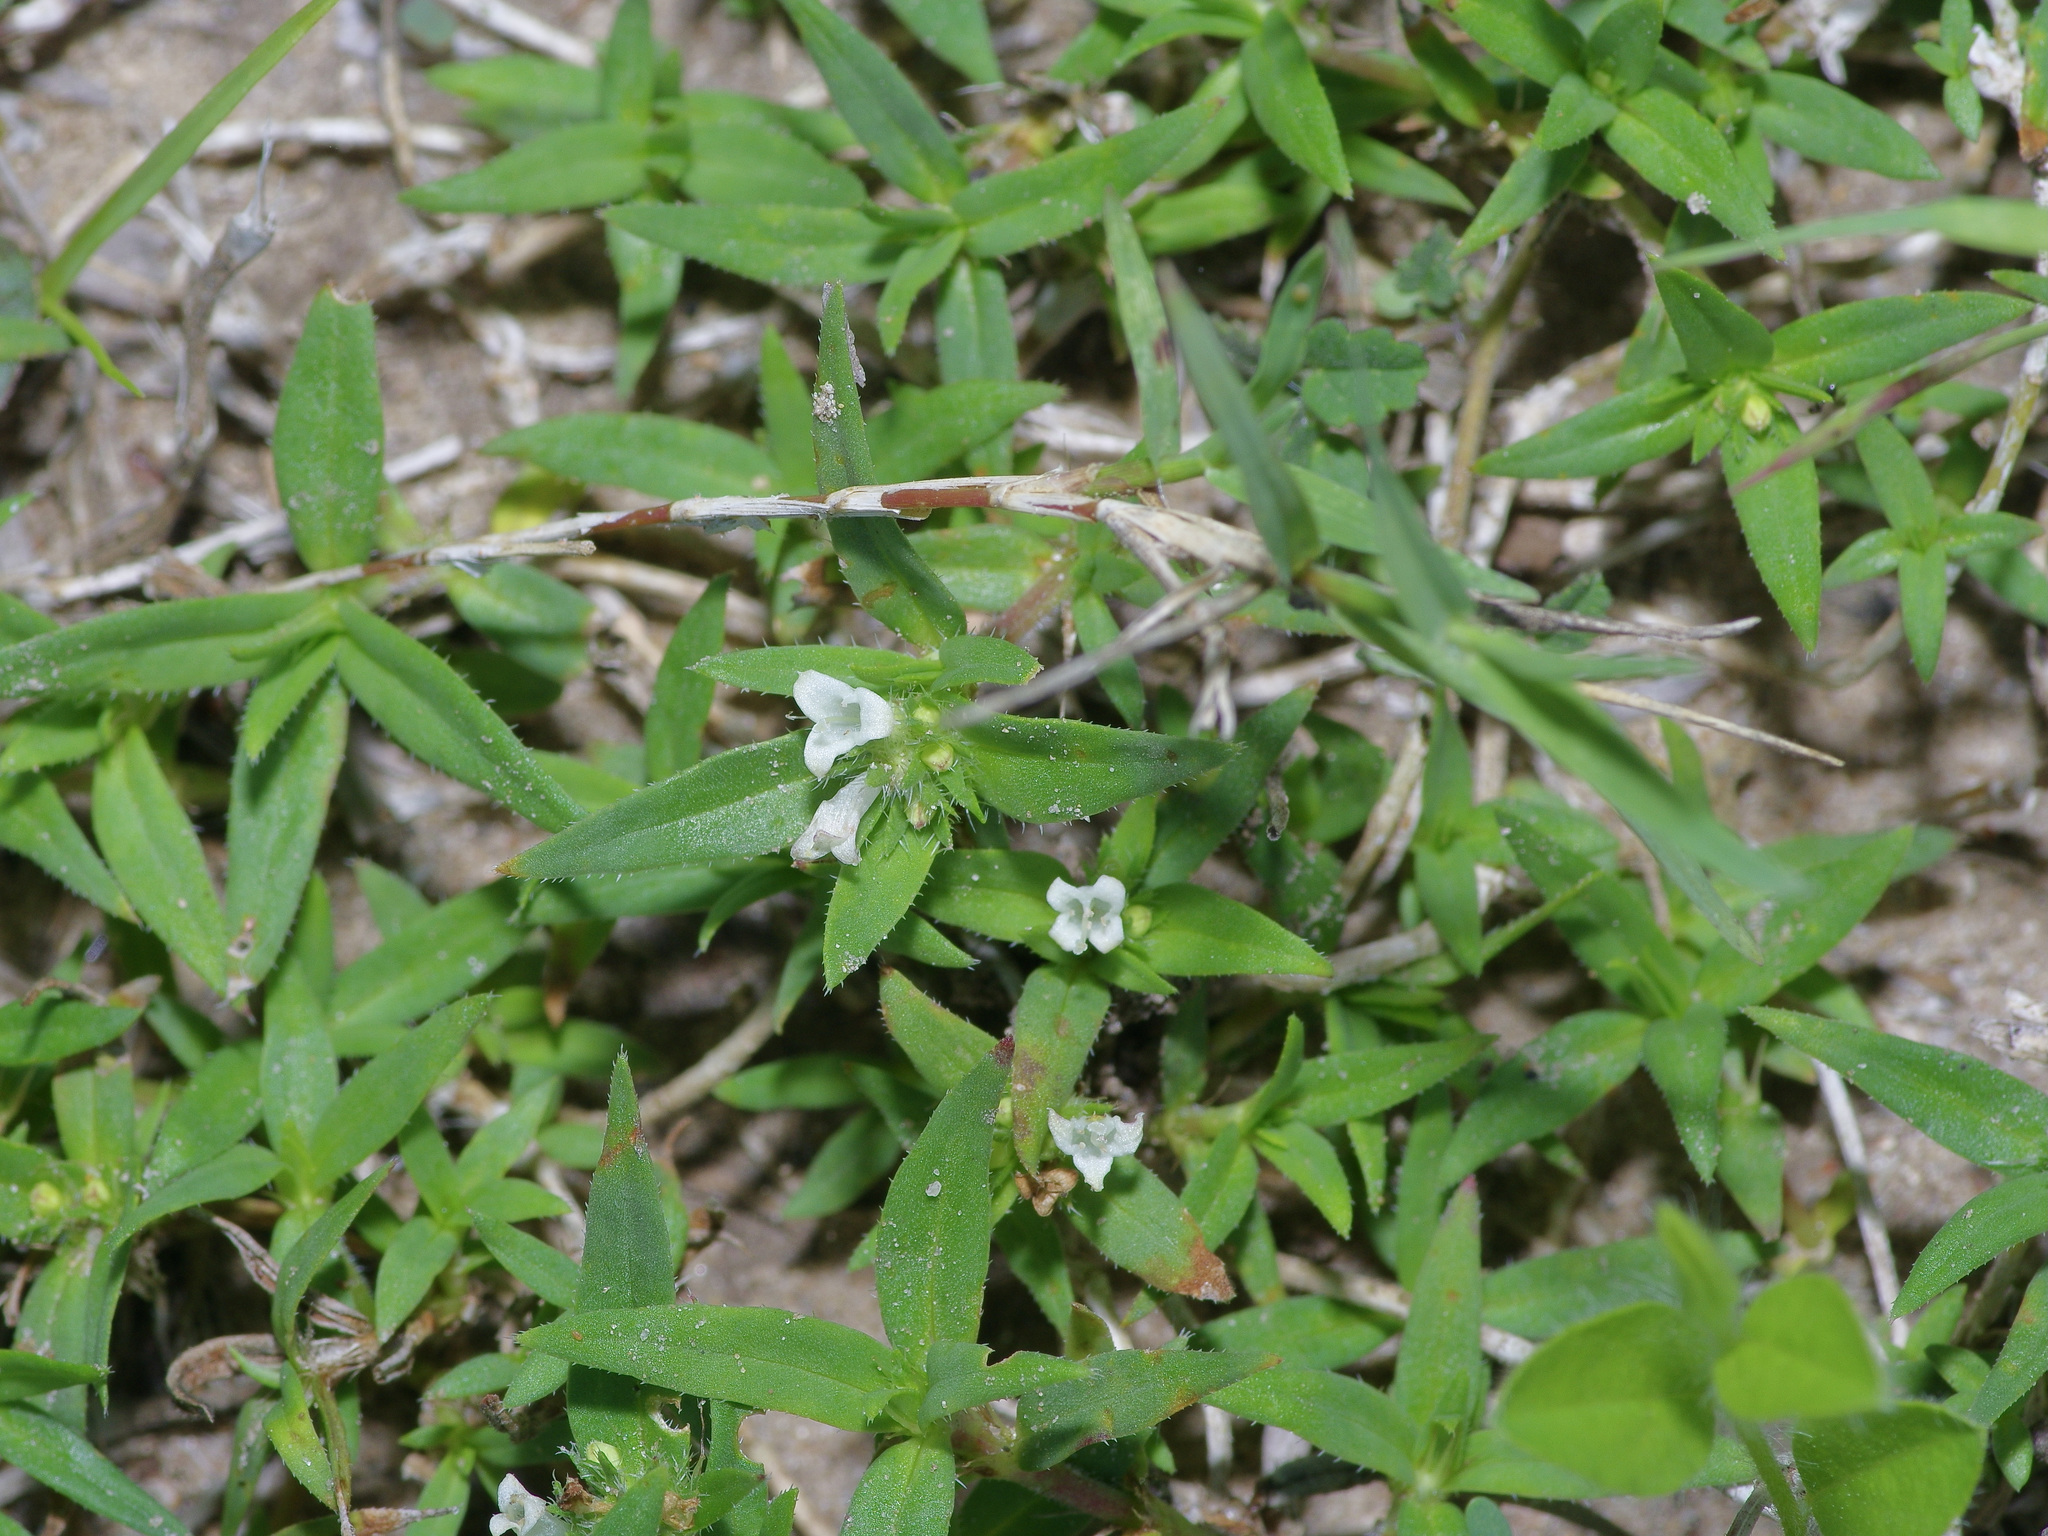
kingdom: Plantae
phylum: Tracheophyta
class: Magnoliopsida
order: Gentianales
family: Rubiaceae
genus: Hexasepalum
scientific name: Hexasepalum teres
